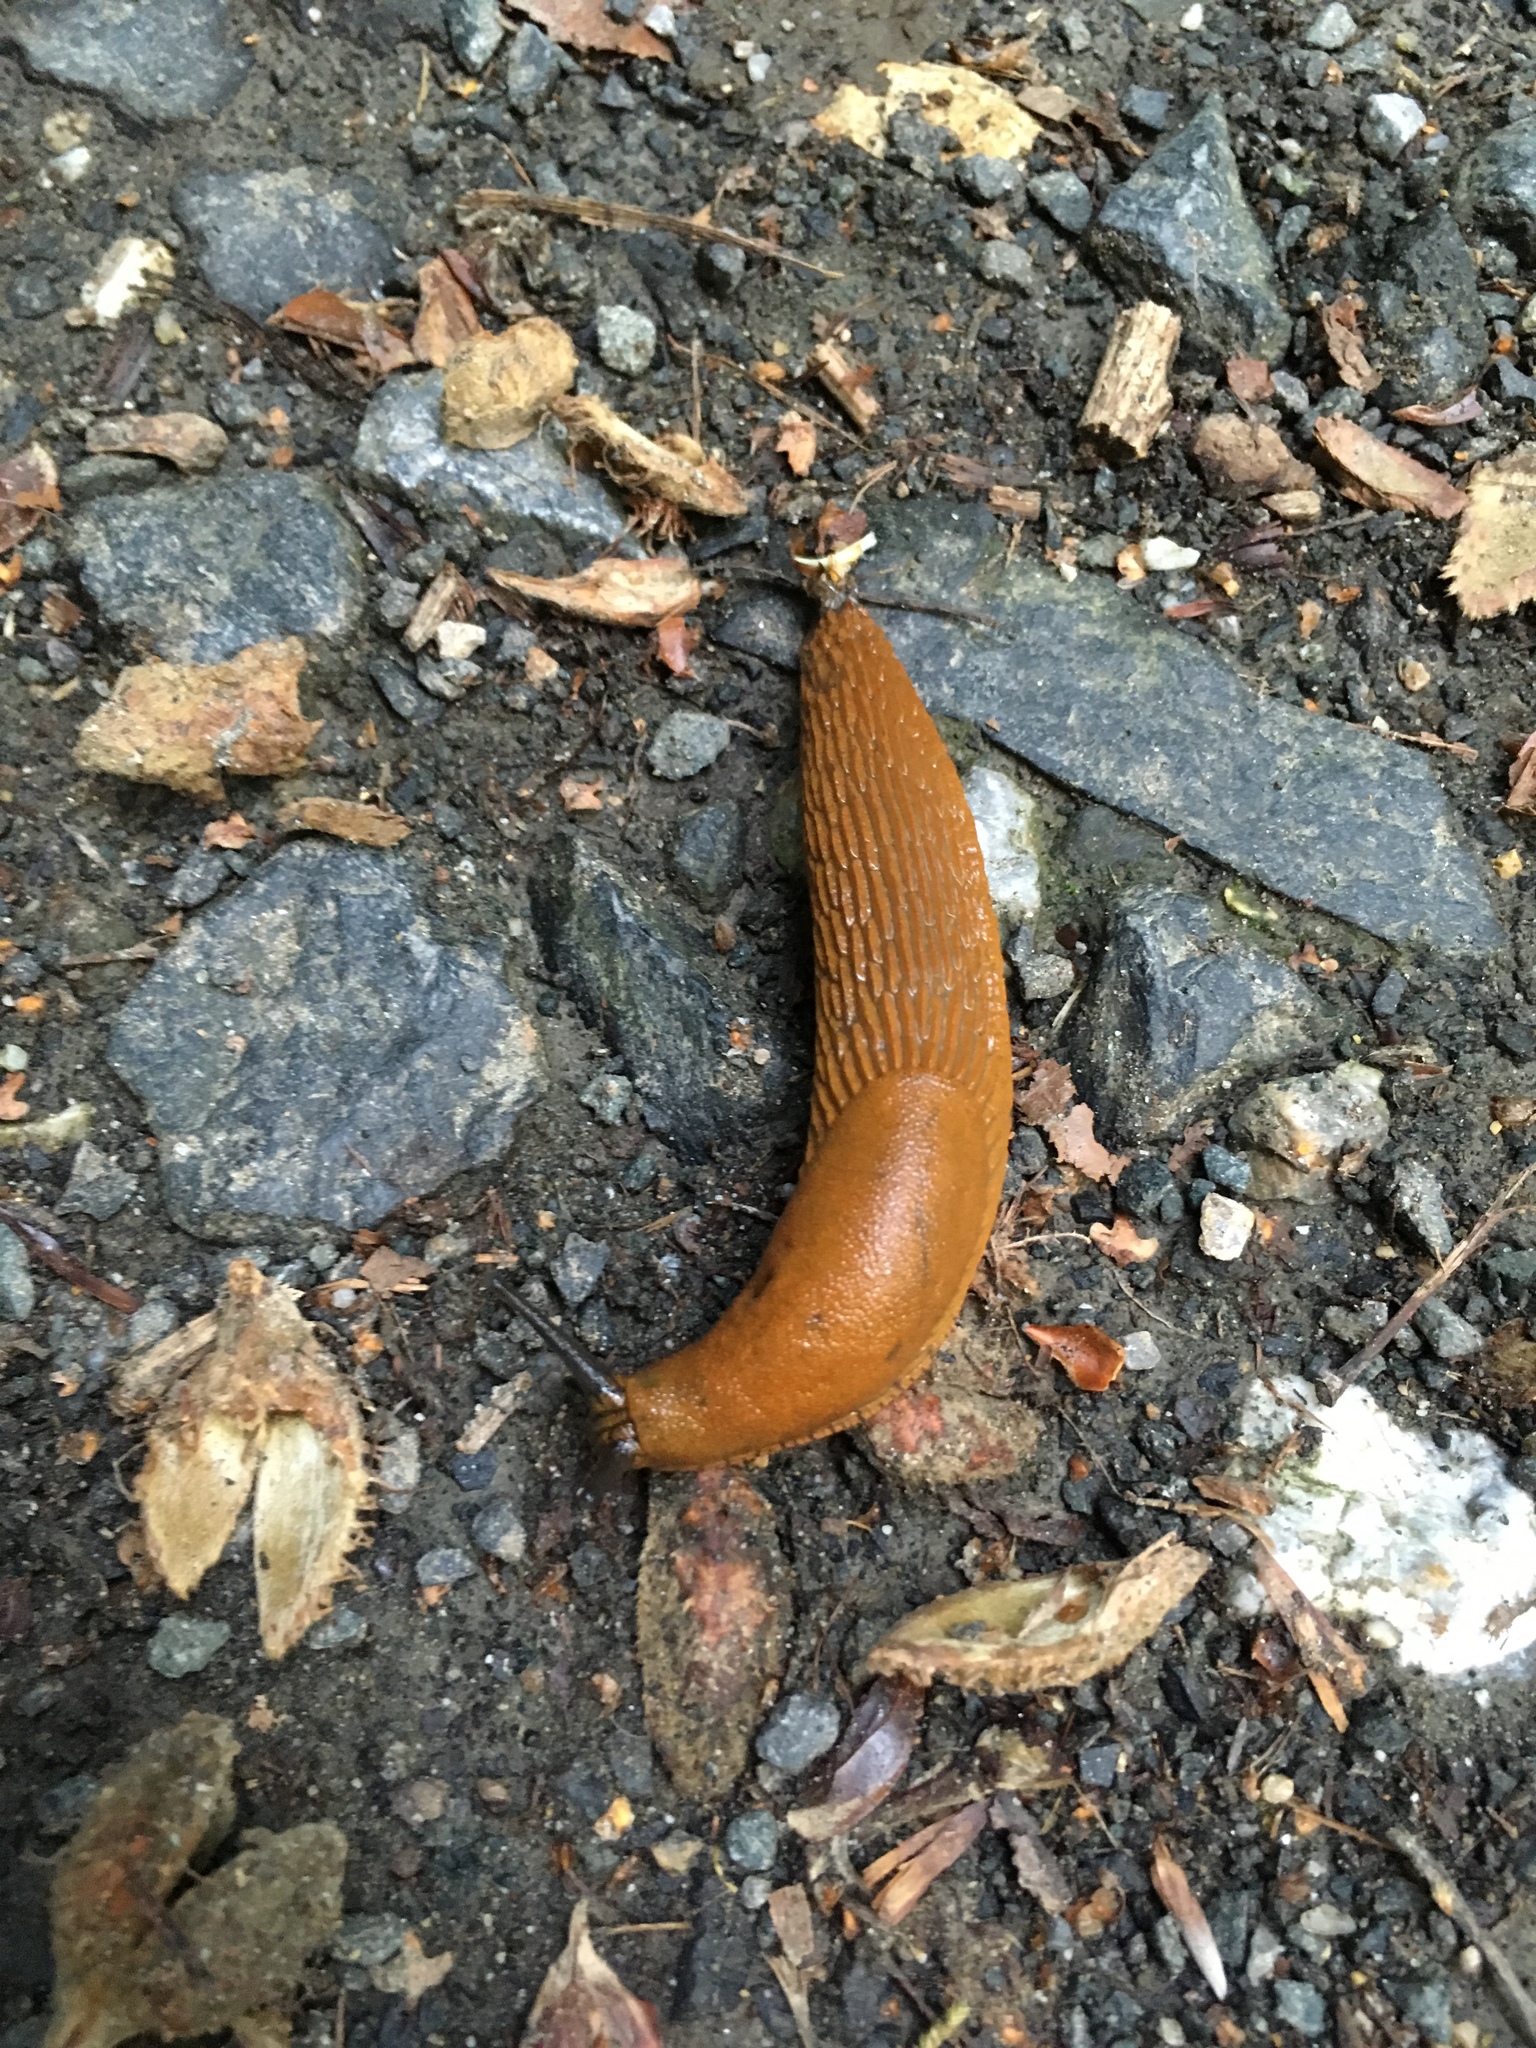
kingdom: Animalia
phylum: Mollusca
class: Gastropoda
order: Stylommatophora
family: Arionidae
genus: Arion
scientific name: Arion
